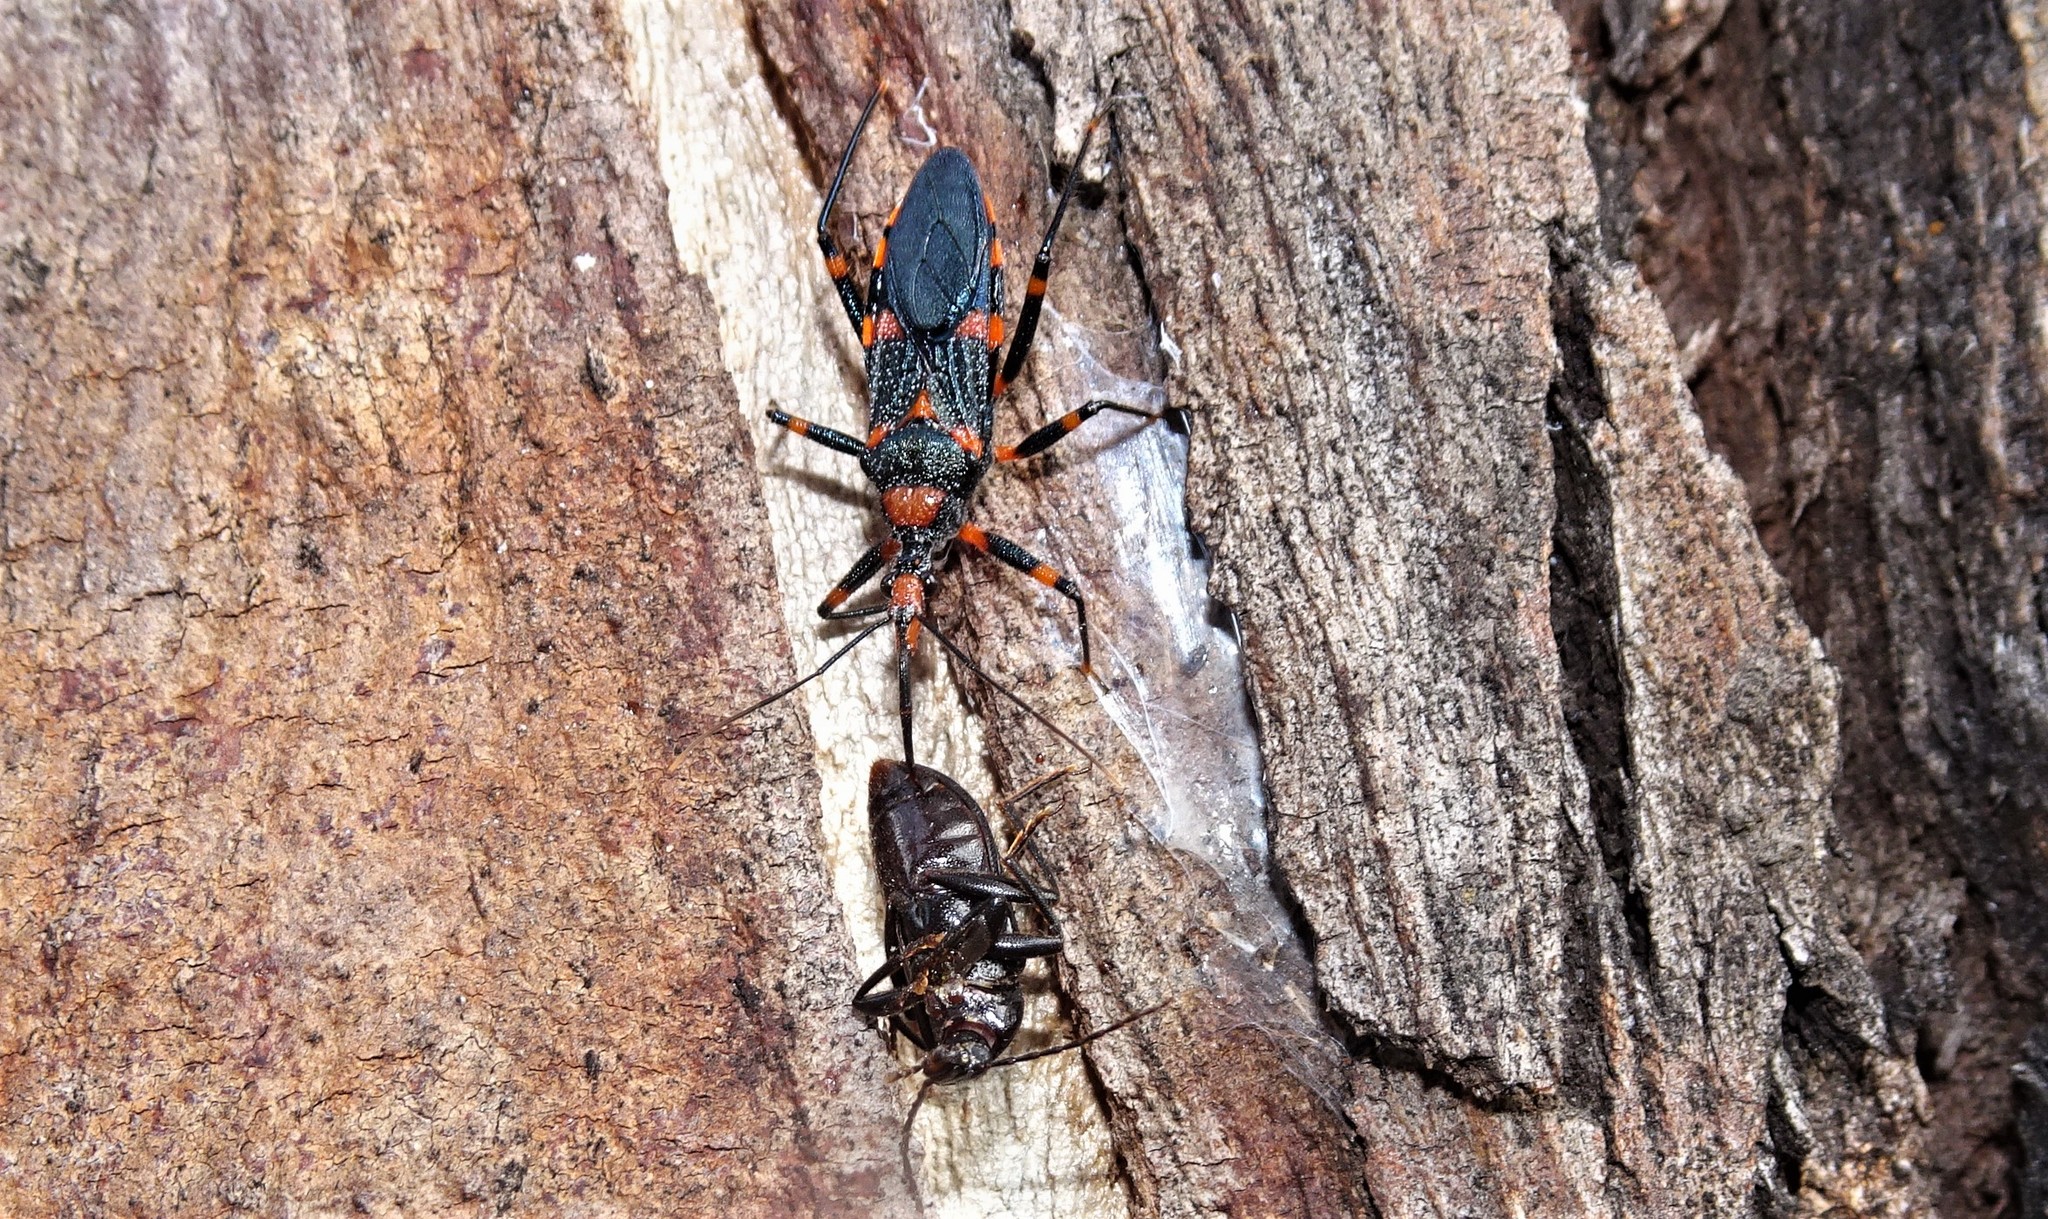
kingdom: Animalia
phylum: Arthropoda
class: Insecta
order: Hemiptera
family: Reduviidae
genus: Havinthus
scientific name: Havinthus rufovarius
